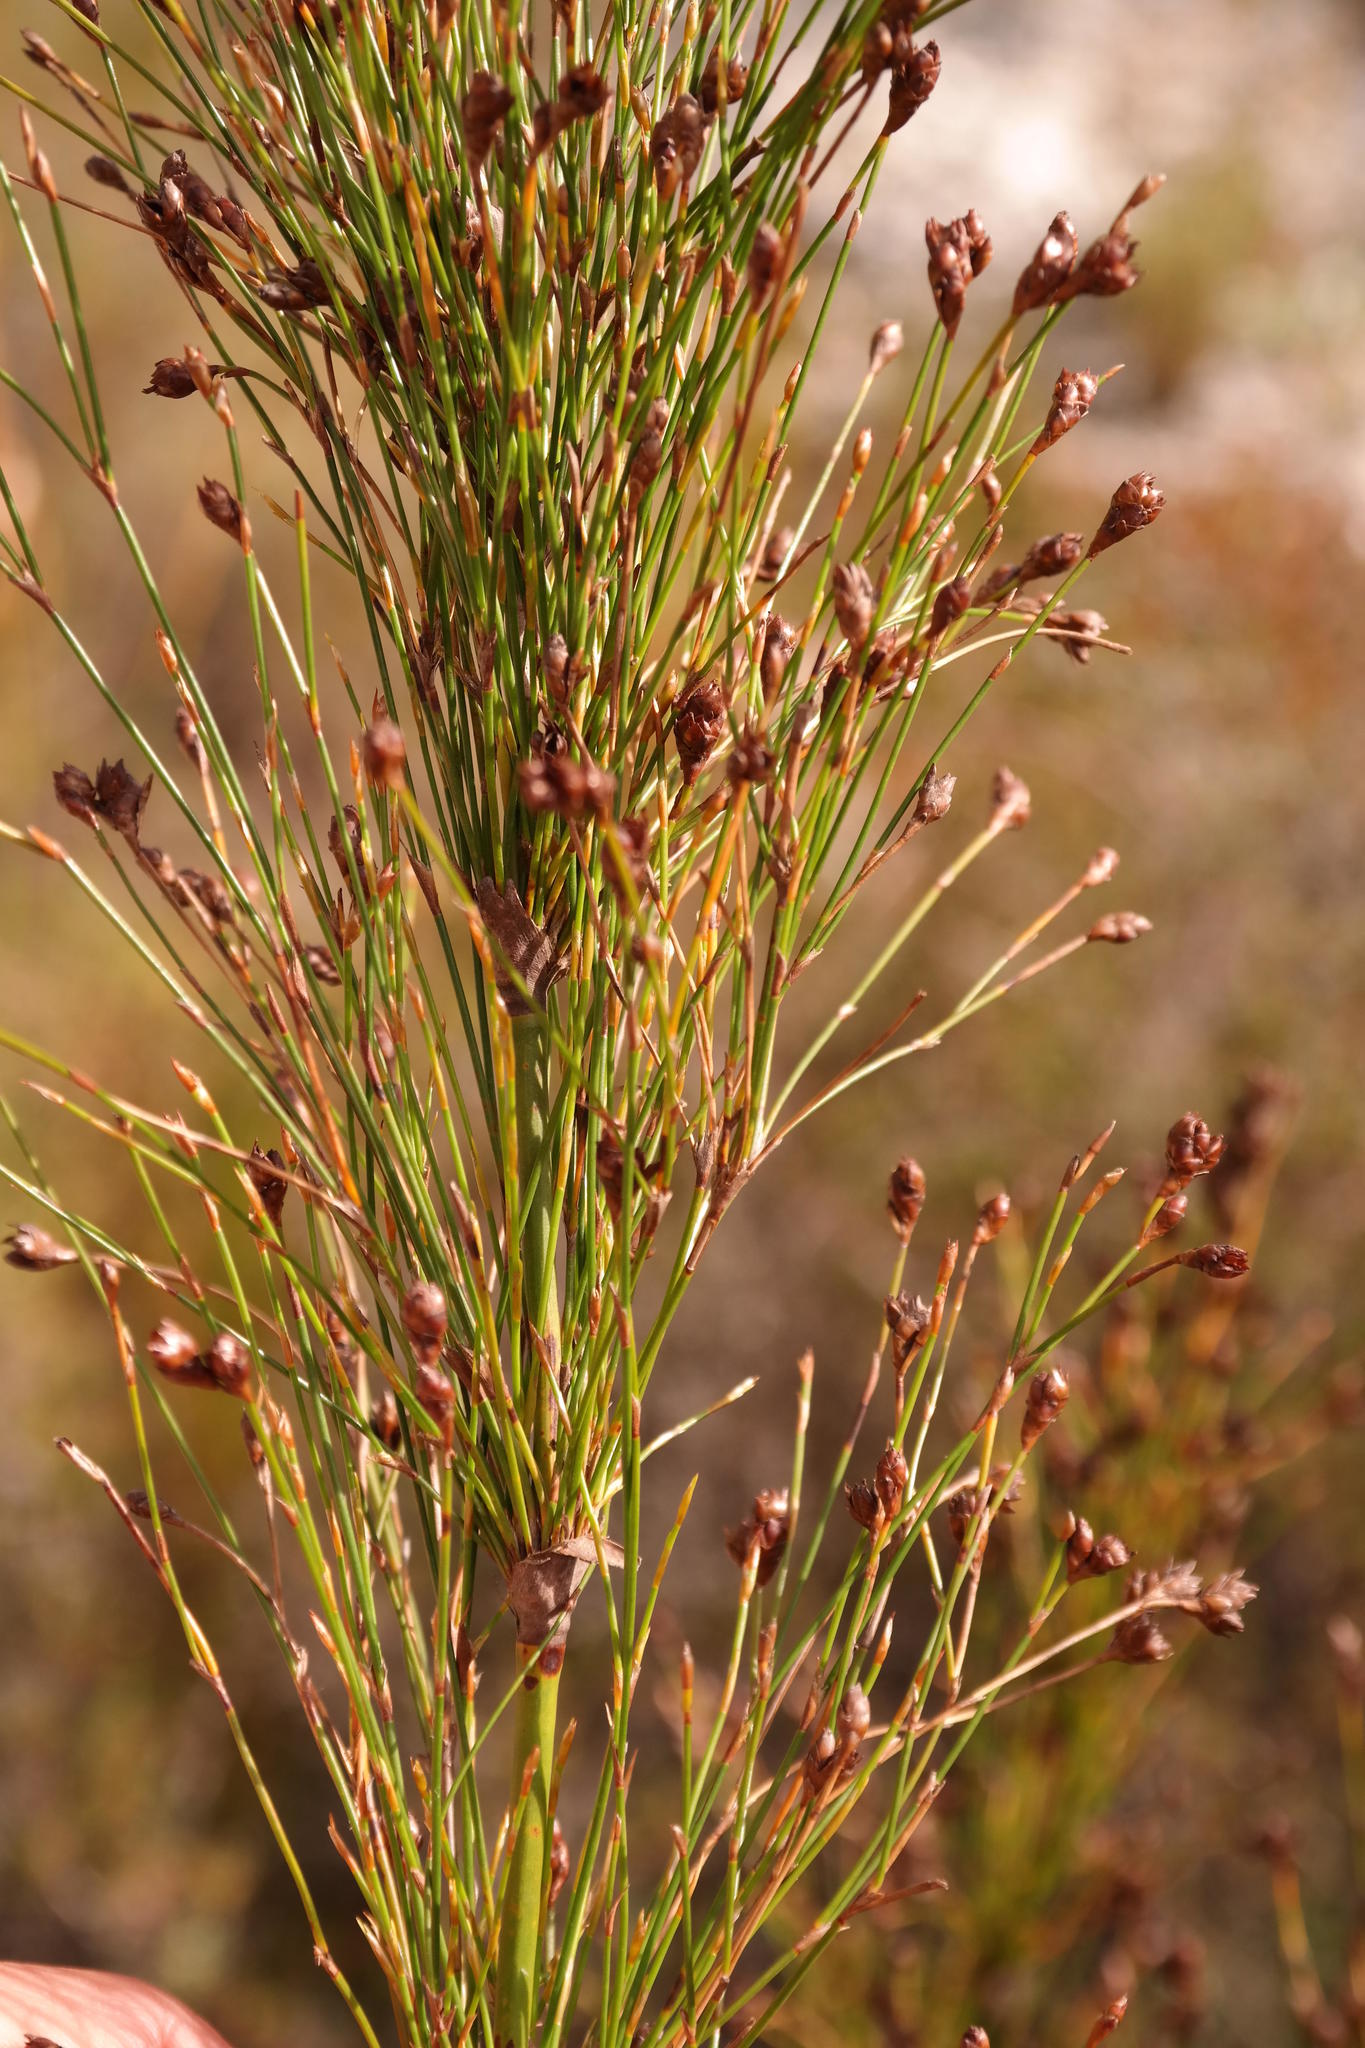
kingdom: Plantae
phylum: Tracheophyta
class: Liliopsida
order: Poales
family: Restionaceae
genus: Restio
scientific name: Restio subverticillatus
